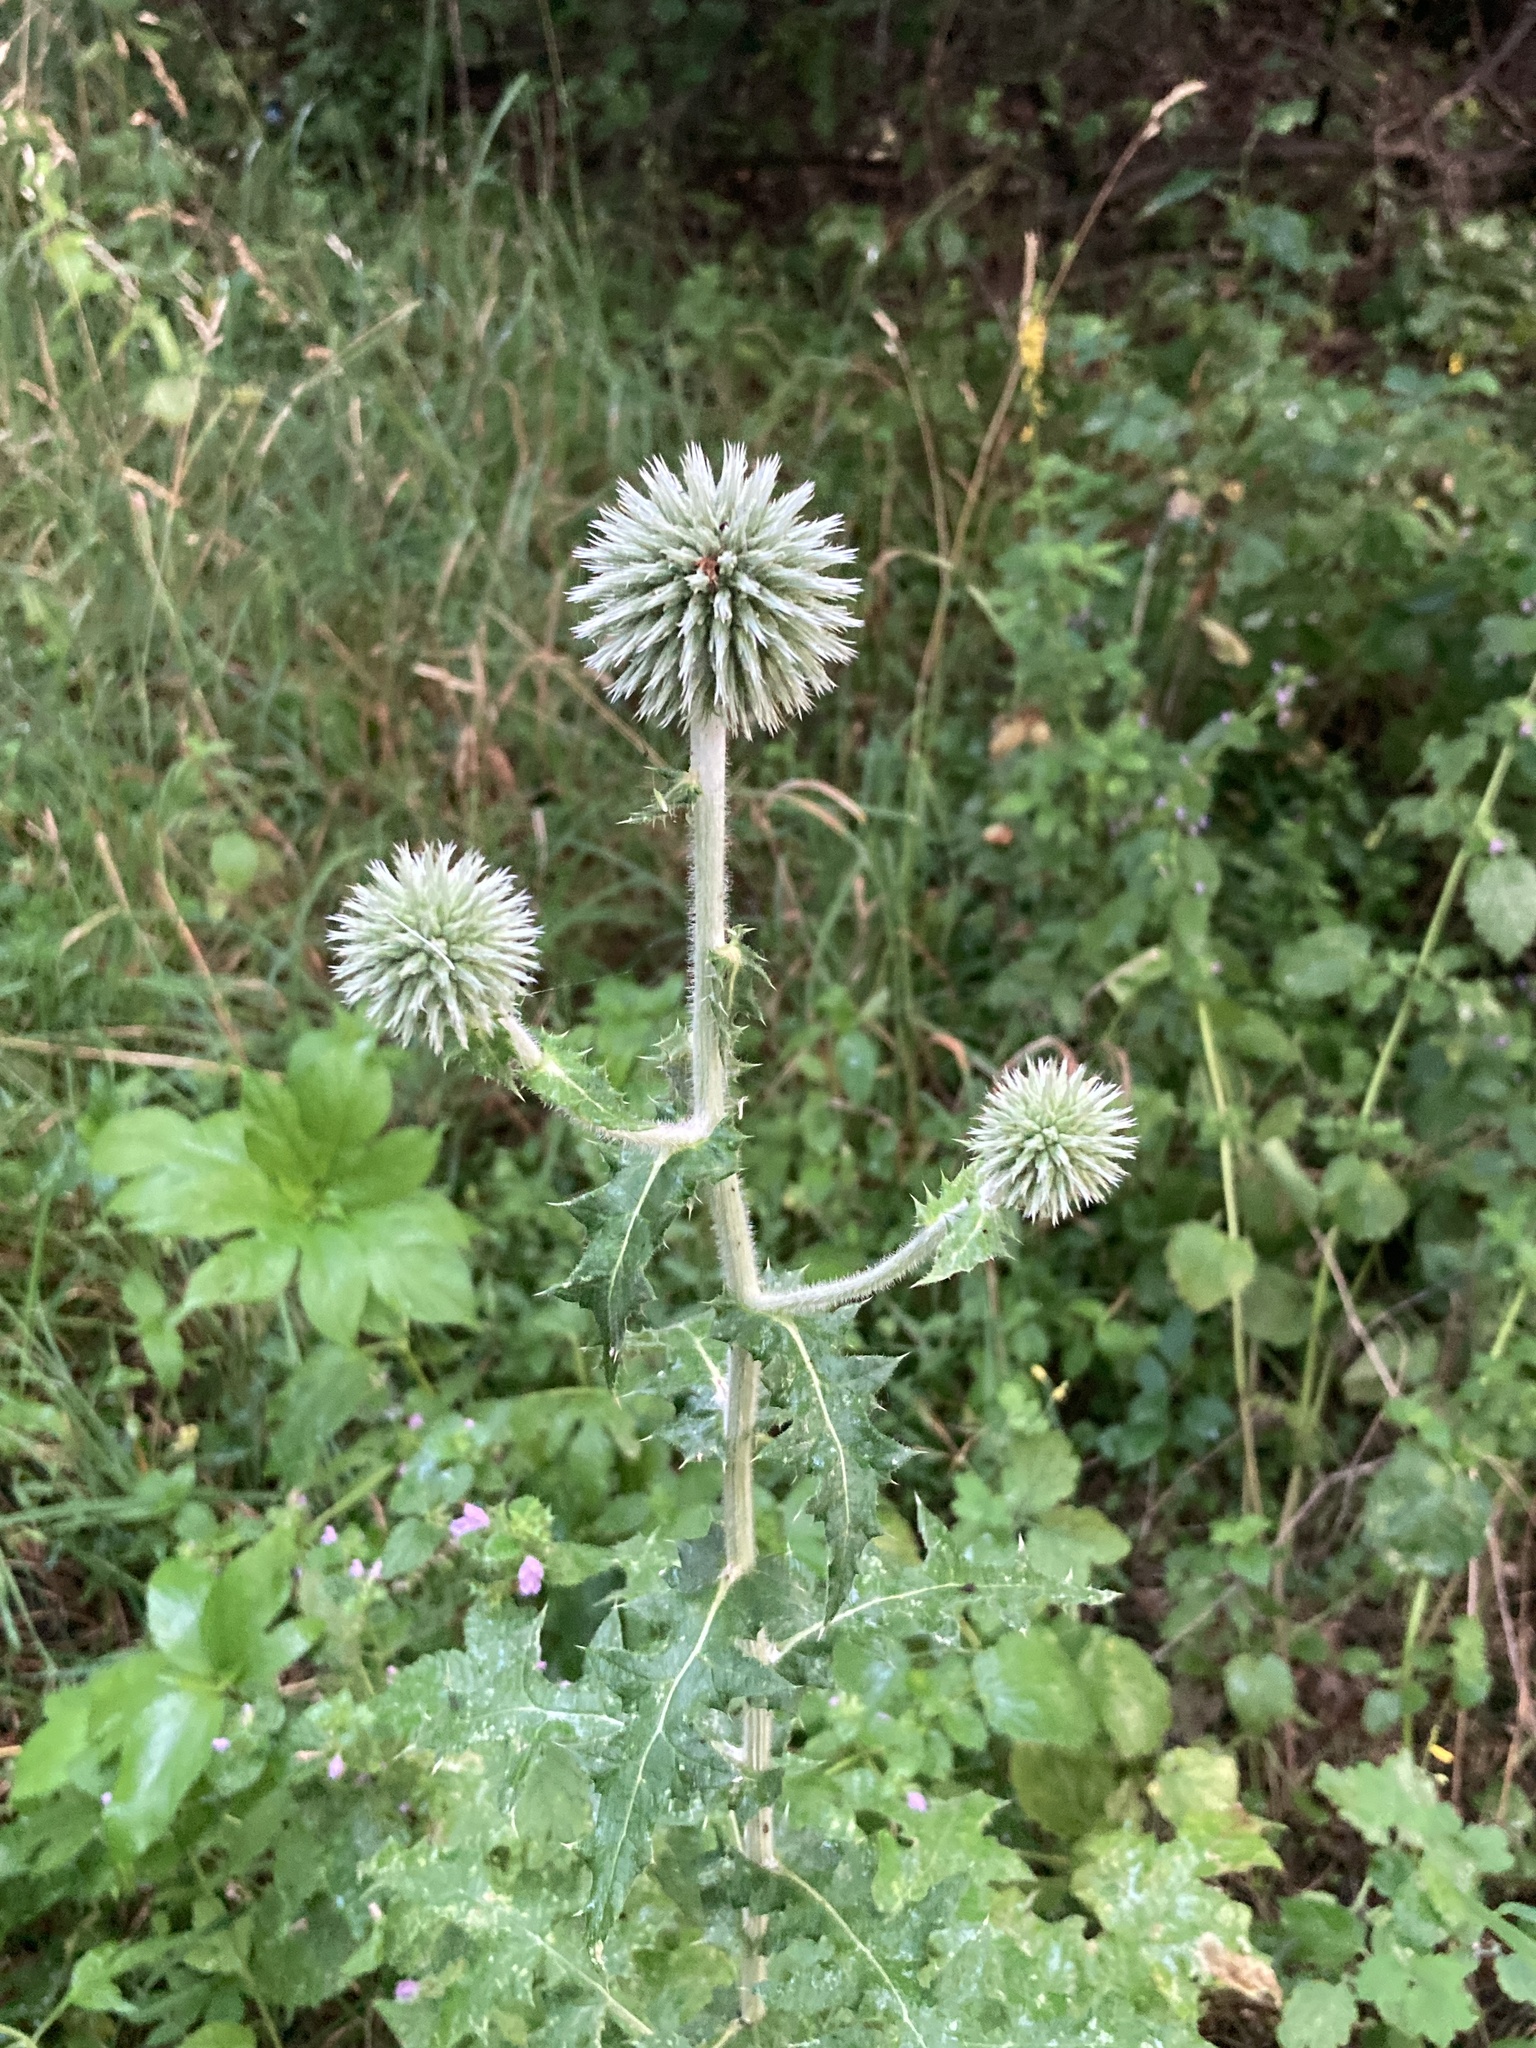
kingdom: Plantae
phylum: Tracheophyta
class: Magnoliopsida
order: Asterales
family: Asteraceae
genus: Echinops
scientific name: Echinops sphaerocephalus
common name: Glandular globe-thistle
